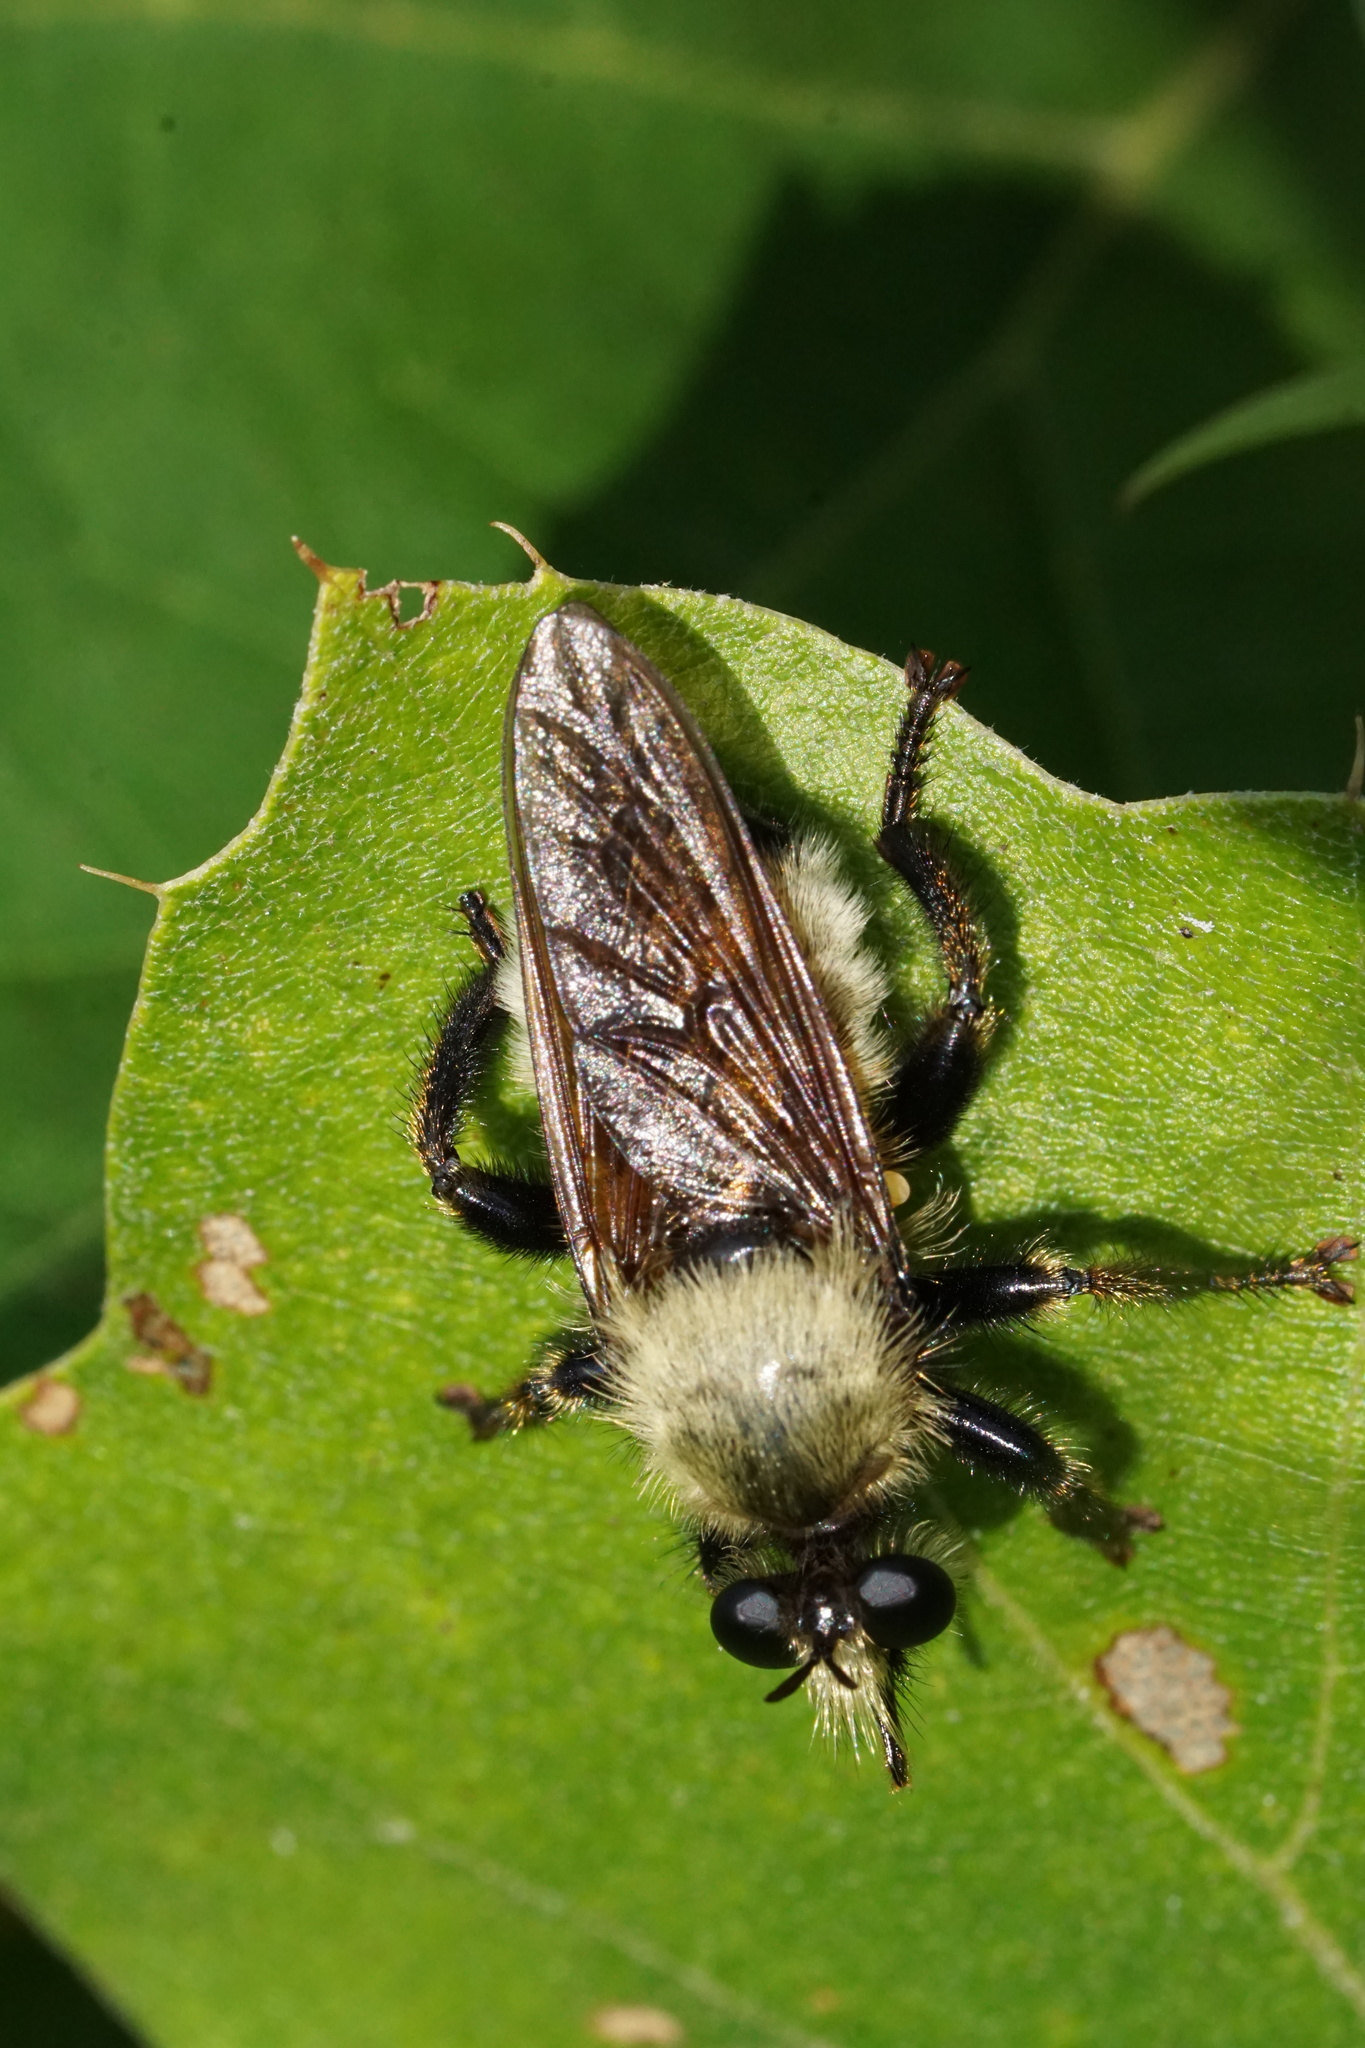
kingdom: Animalia
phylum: Arthropoda
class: Insecta
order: Diptera
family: Asilidae
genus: Laphria
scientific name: Laphria champlainii
